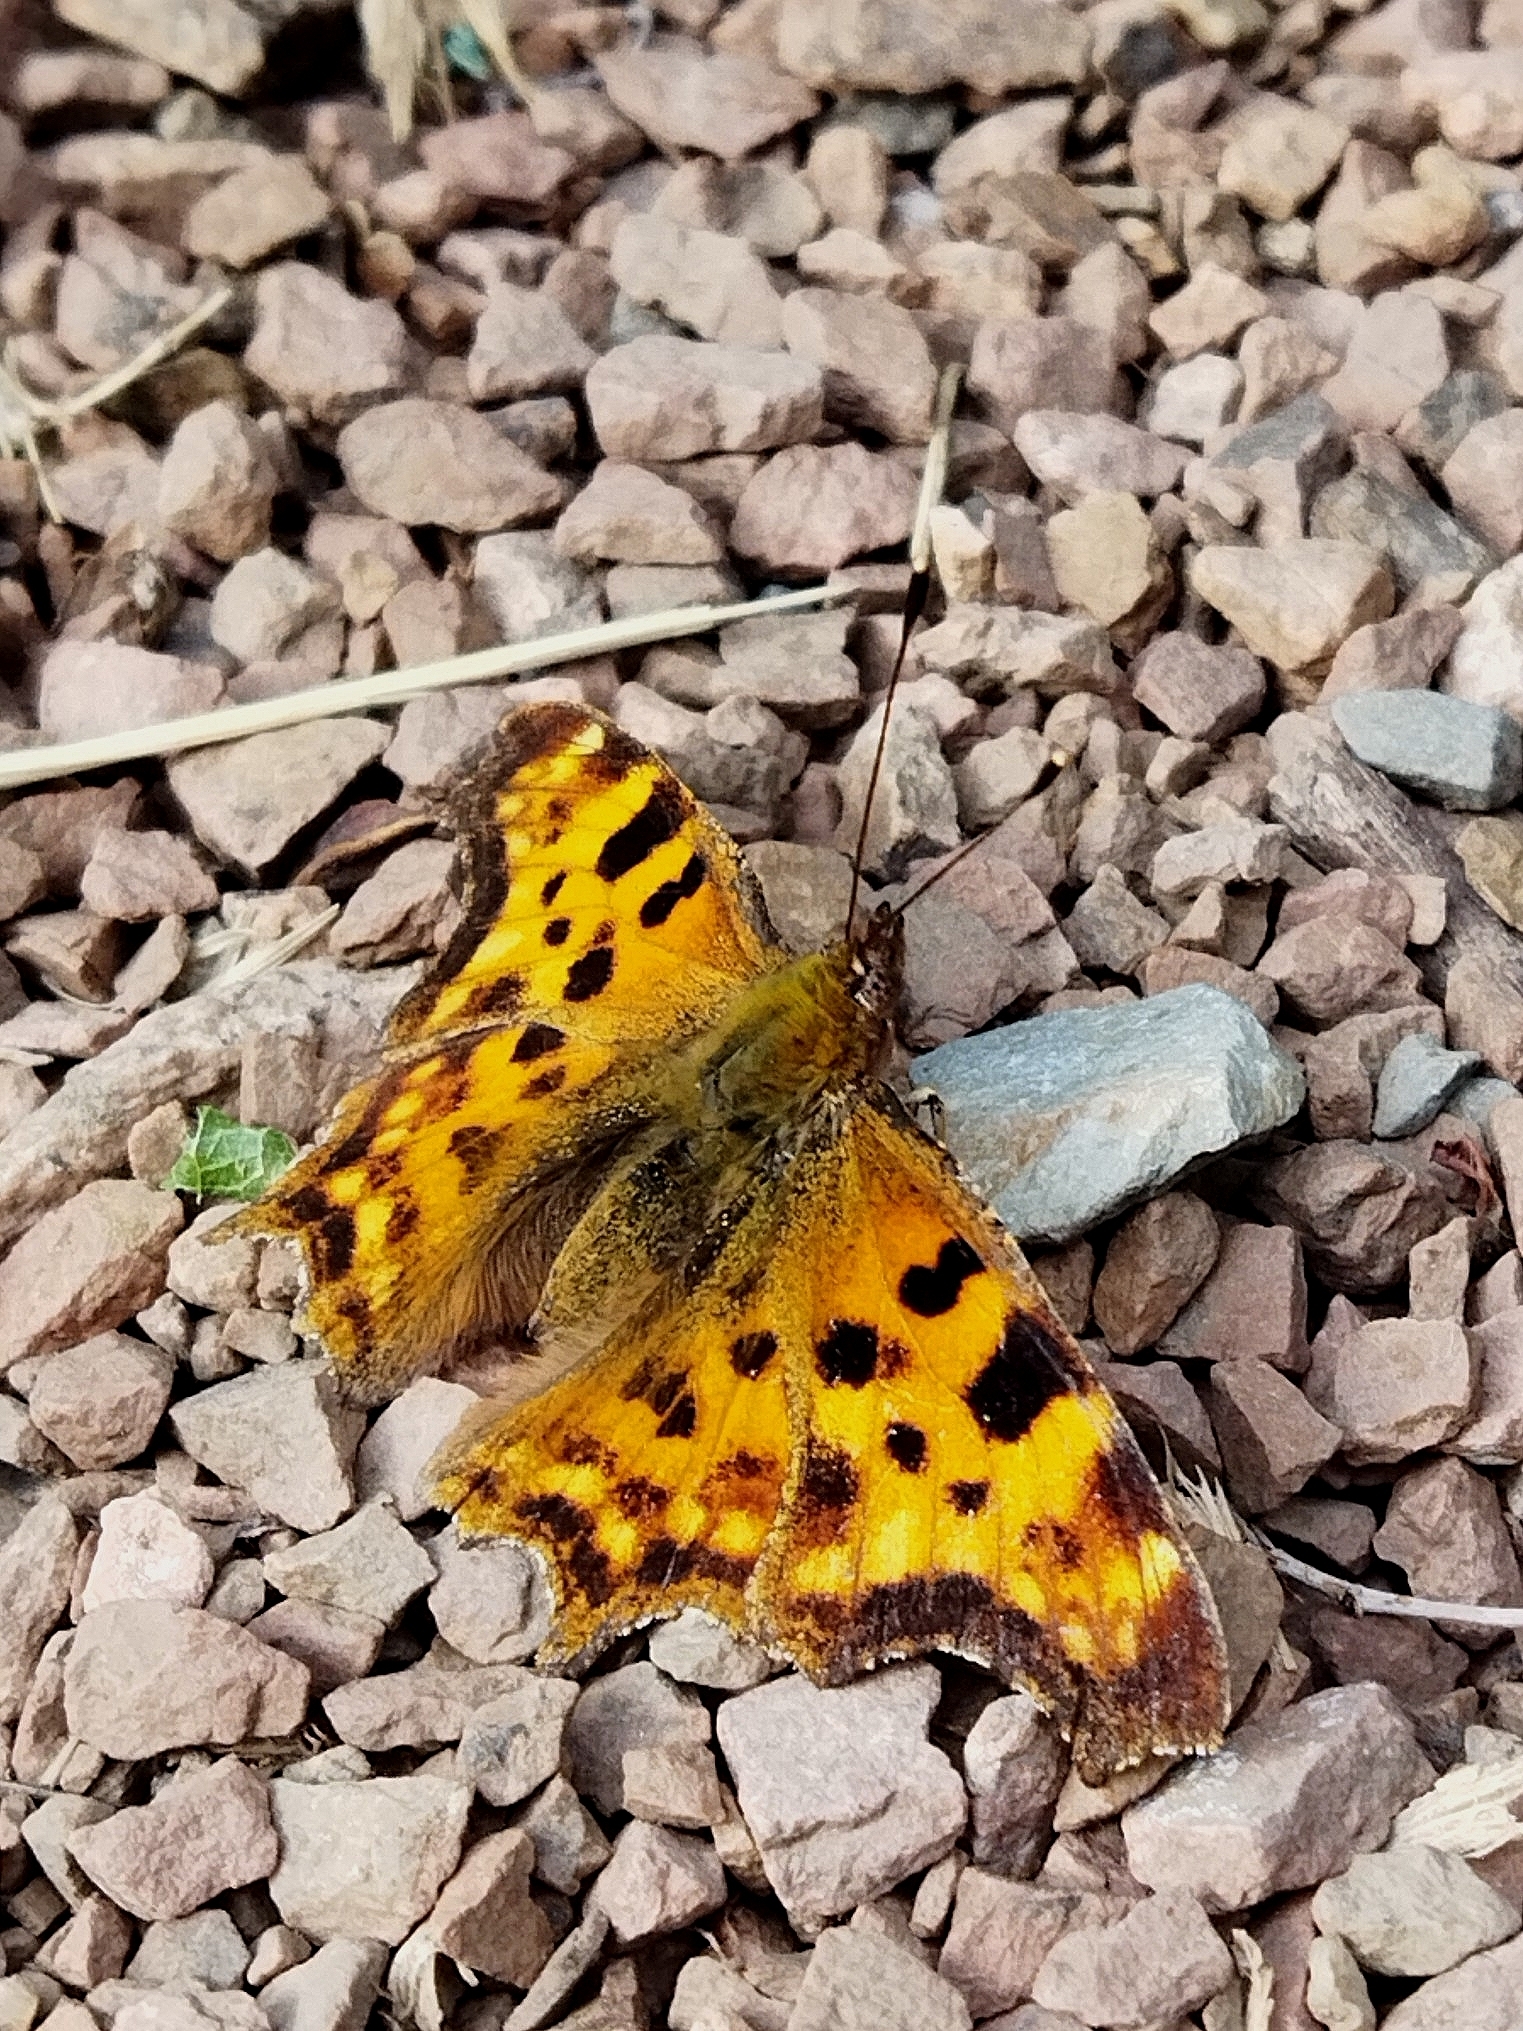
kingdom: Animalia
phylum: Arthropoda
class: Insecta
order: Lepidoptera
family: Nymphalidae
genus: Polygonia
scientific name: Polygonia c-album
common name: Comma
